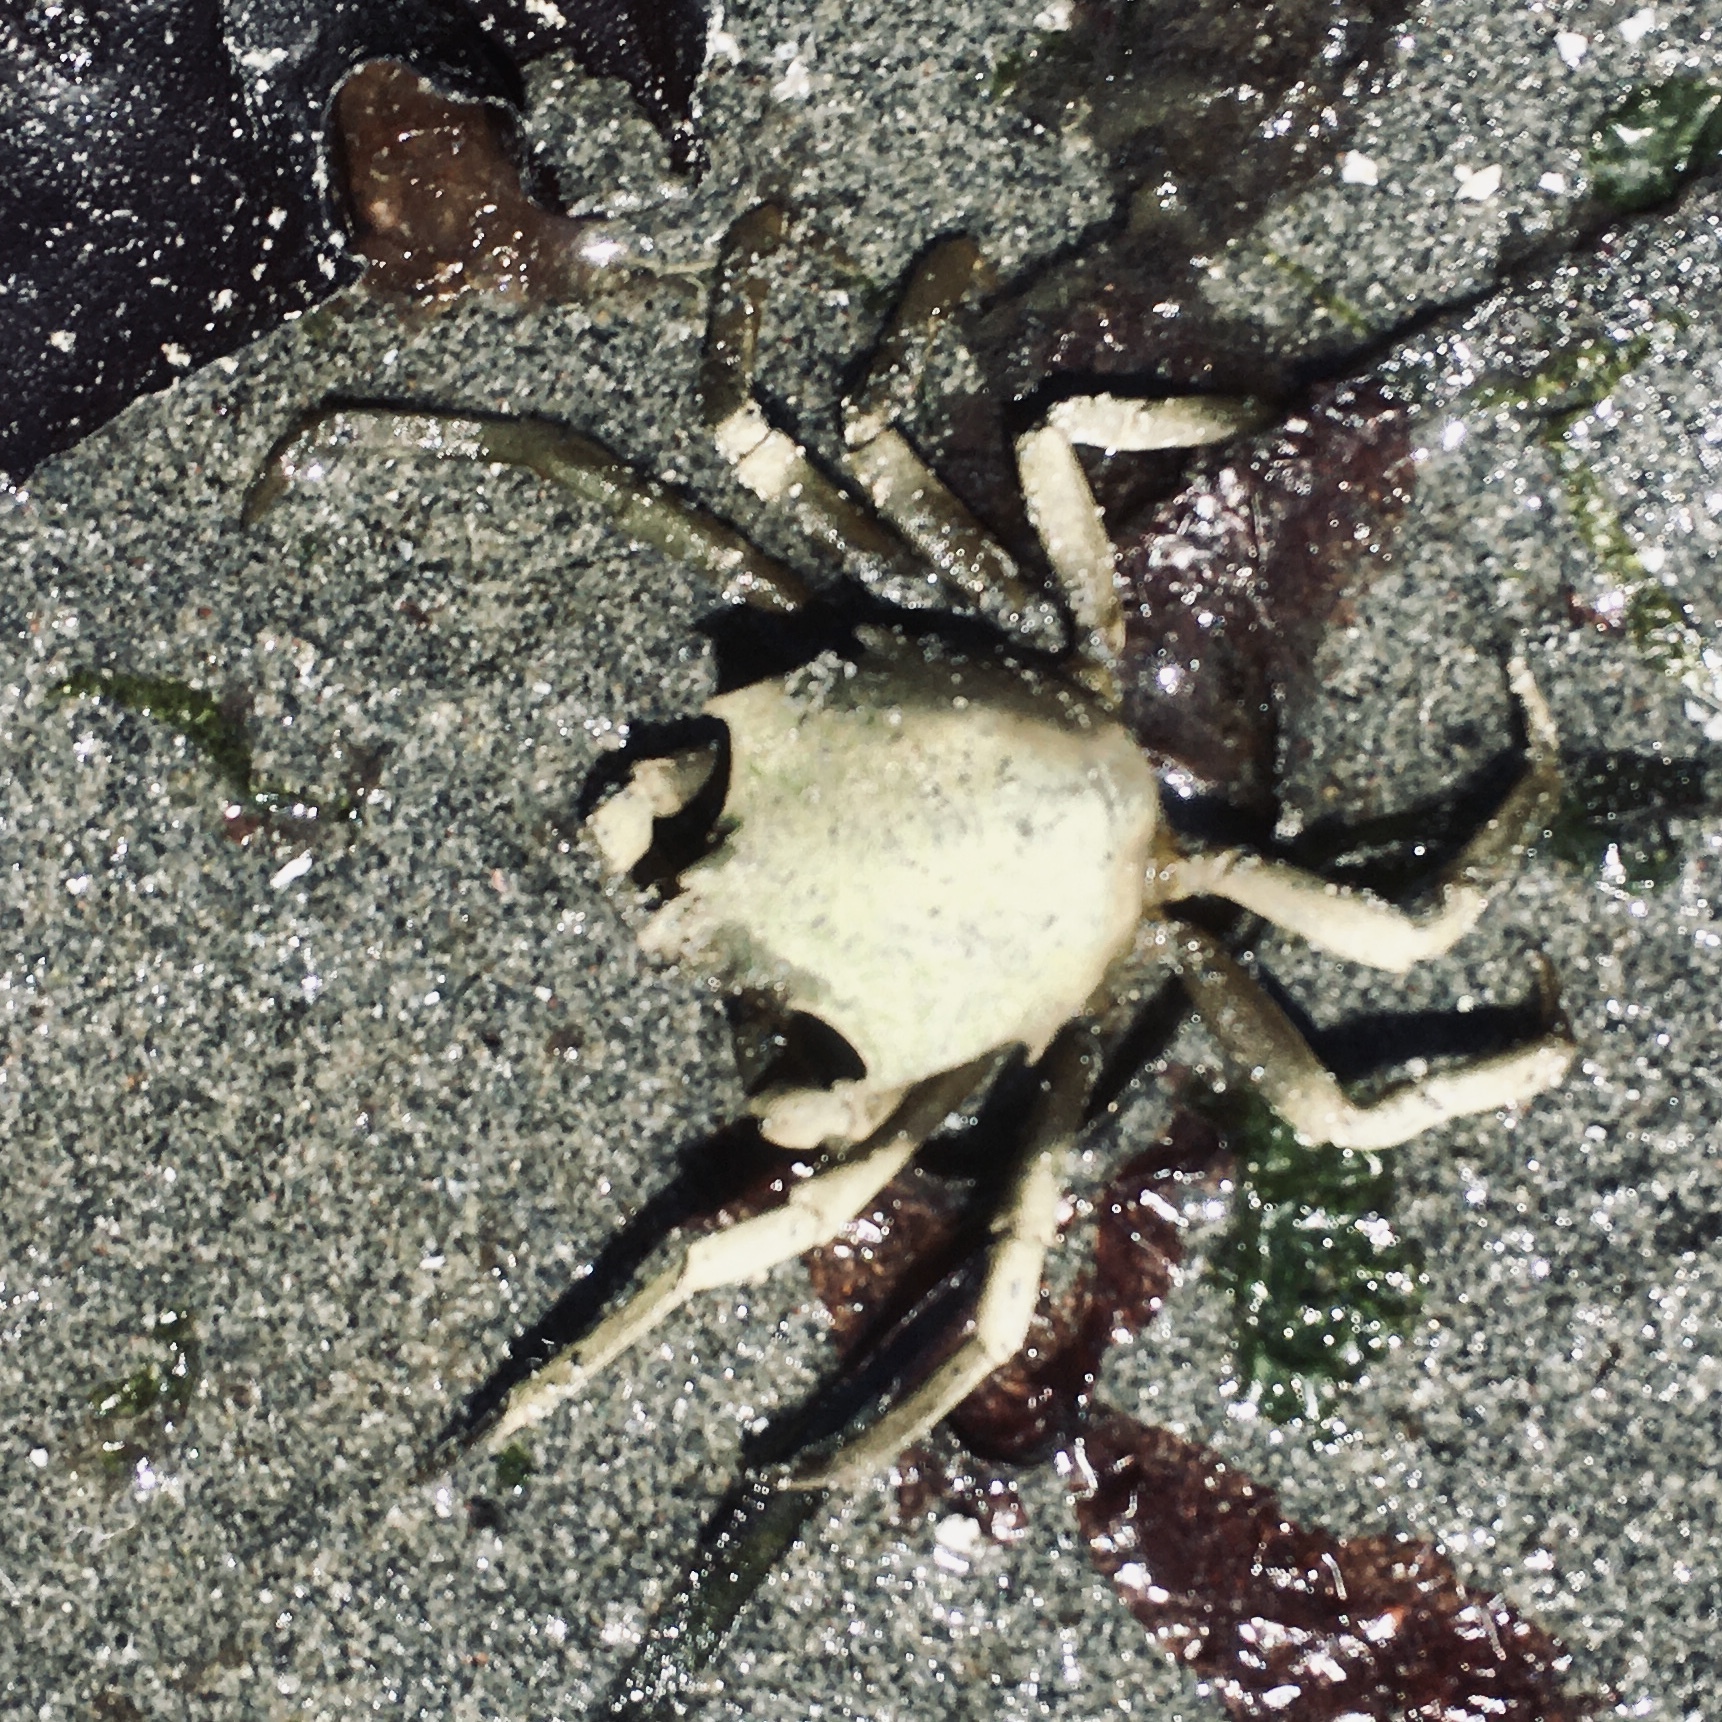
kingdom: Animalia
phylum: Arthropoda
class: Malacostraca
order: Decapoda
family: Epialtidae
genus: Pugettia
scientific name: Pugettia producta
